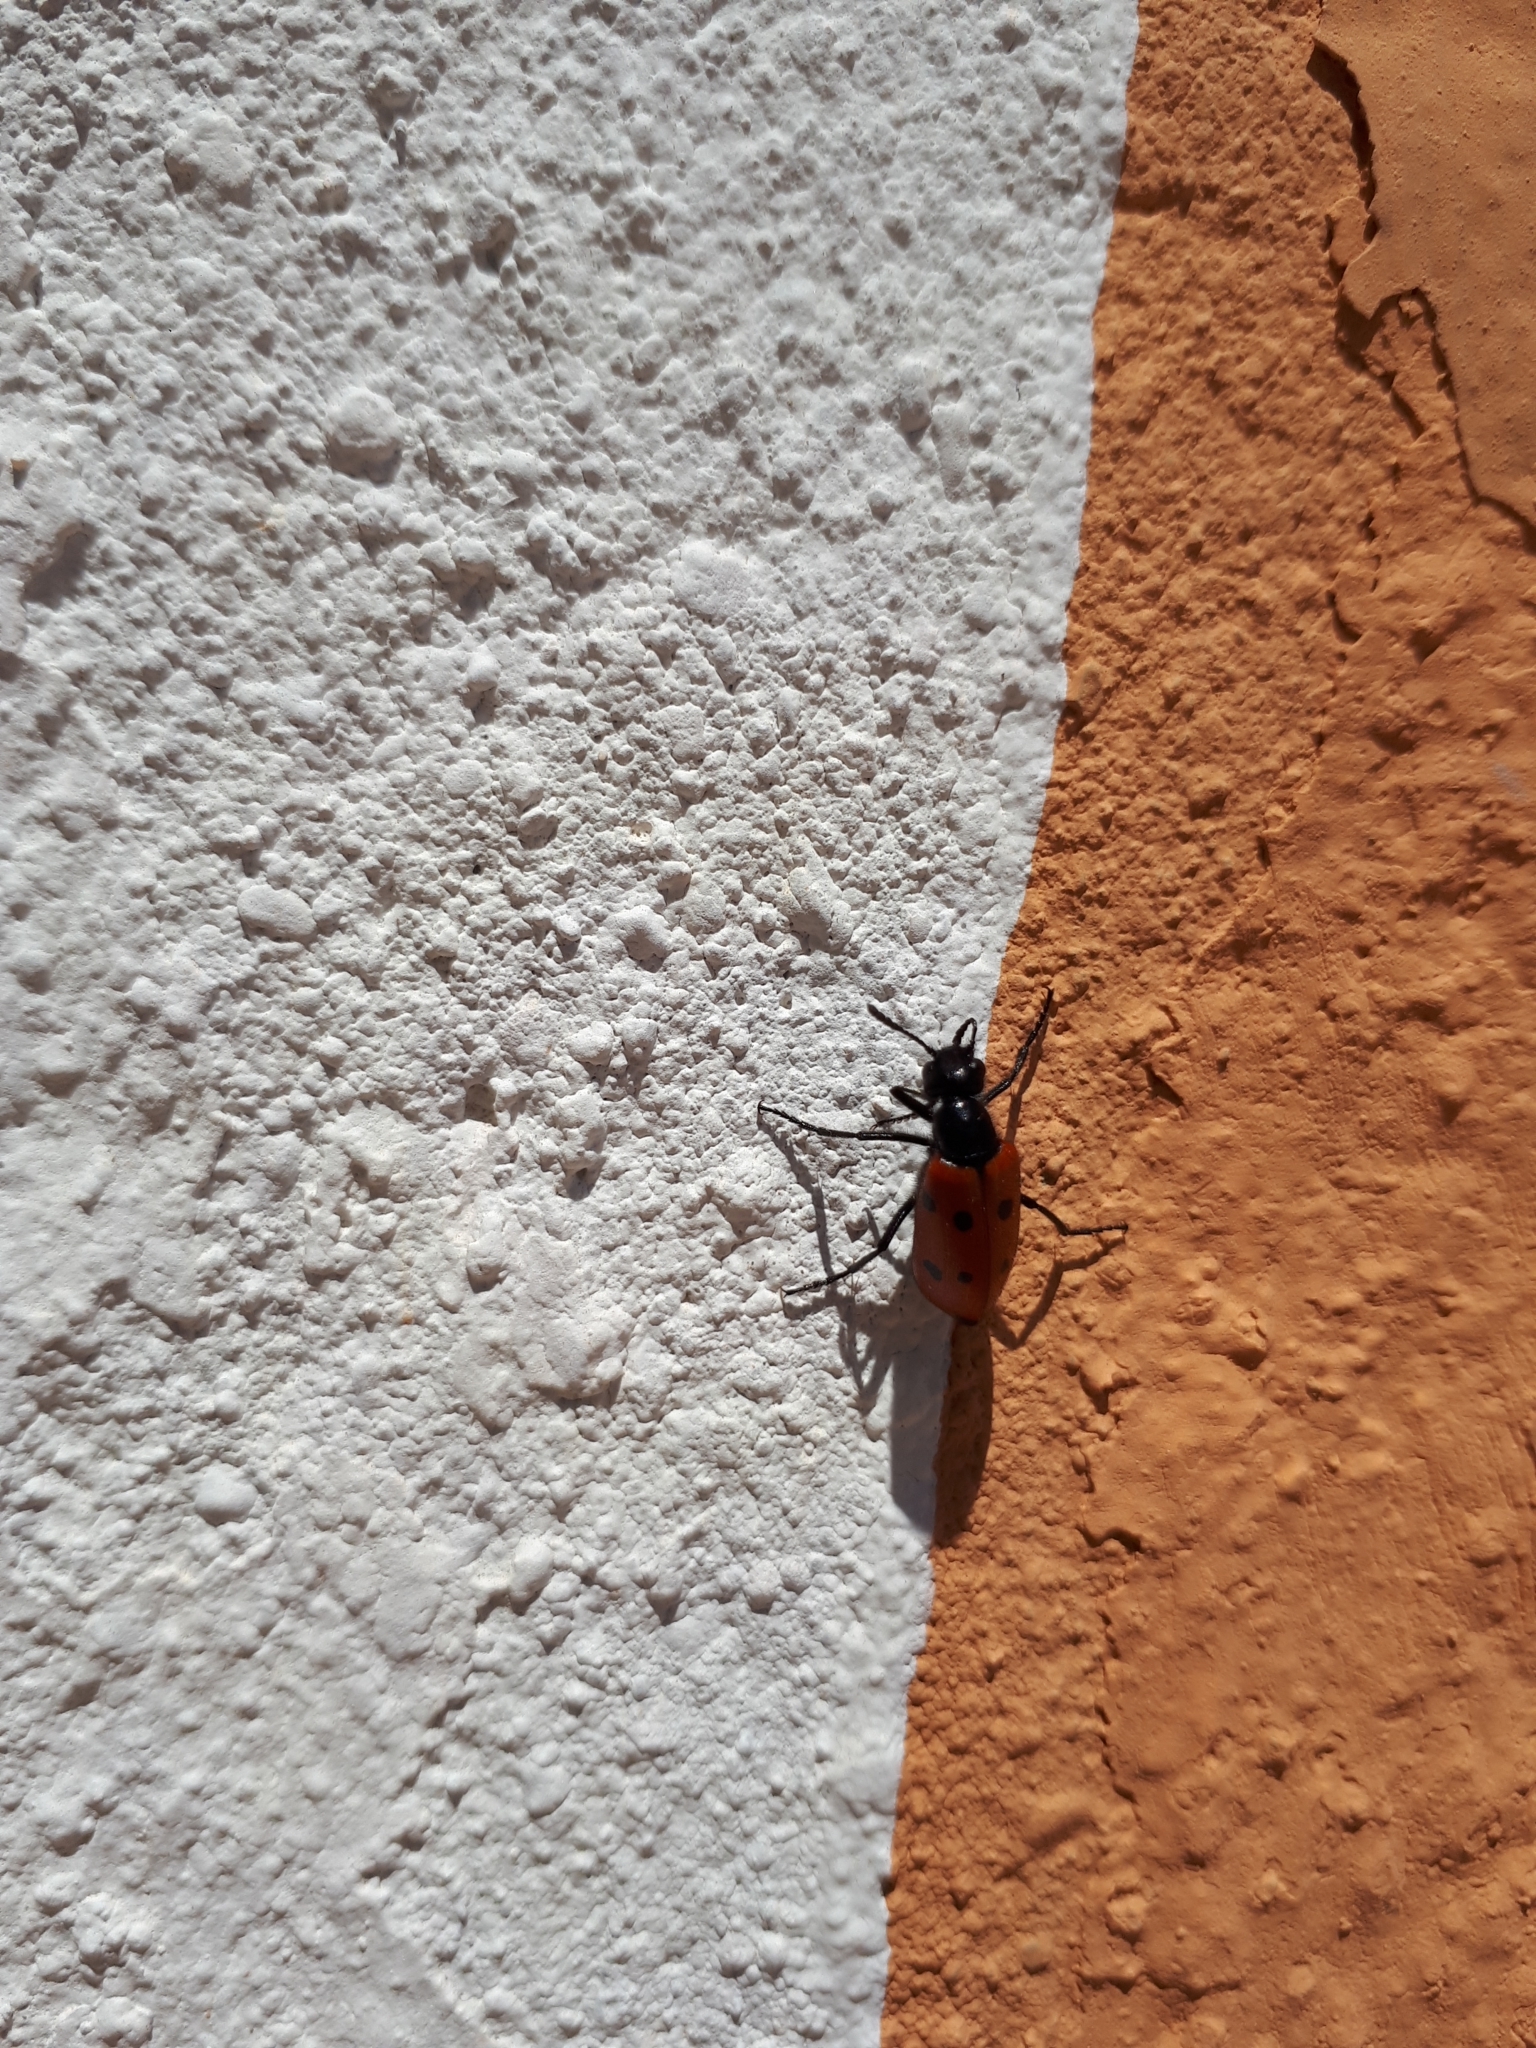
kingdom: Animalia
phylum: Arthropoda
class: Insecta
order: Coleoptera
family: Meloidae
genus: Mylabris
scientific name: Mylabris quadripunctata
